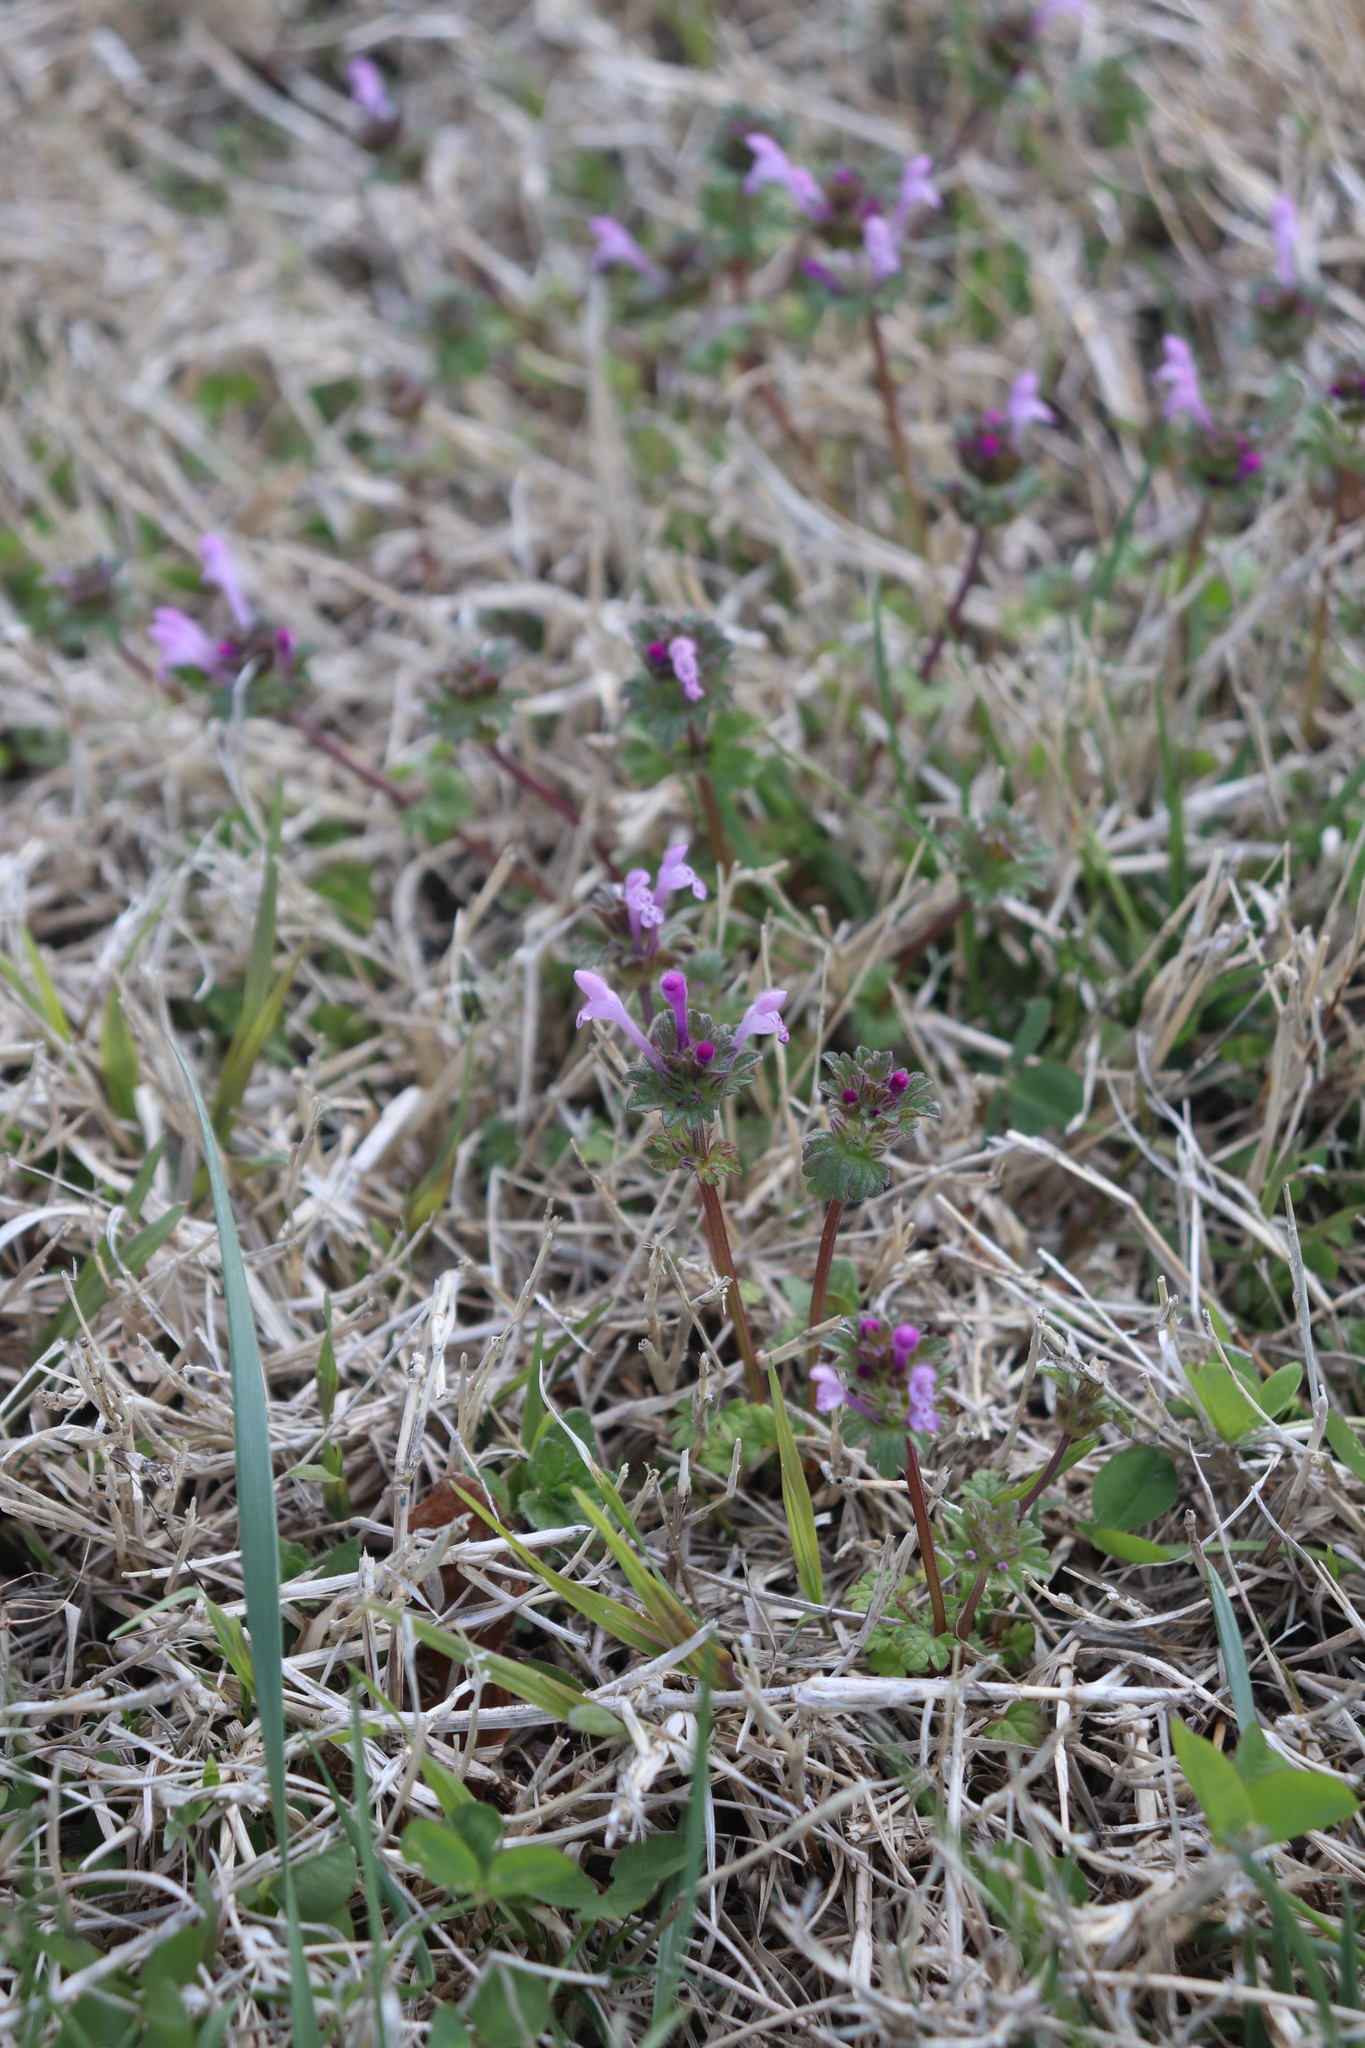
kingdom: Plantae
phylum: Tracheophyta
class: Magnoliopsida
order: Lamiales
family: Lamiaceae
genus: Lamium
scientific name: Lamium amplexicaule
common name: Henbit dead-nettle
